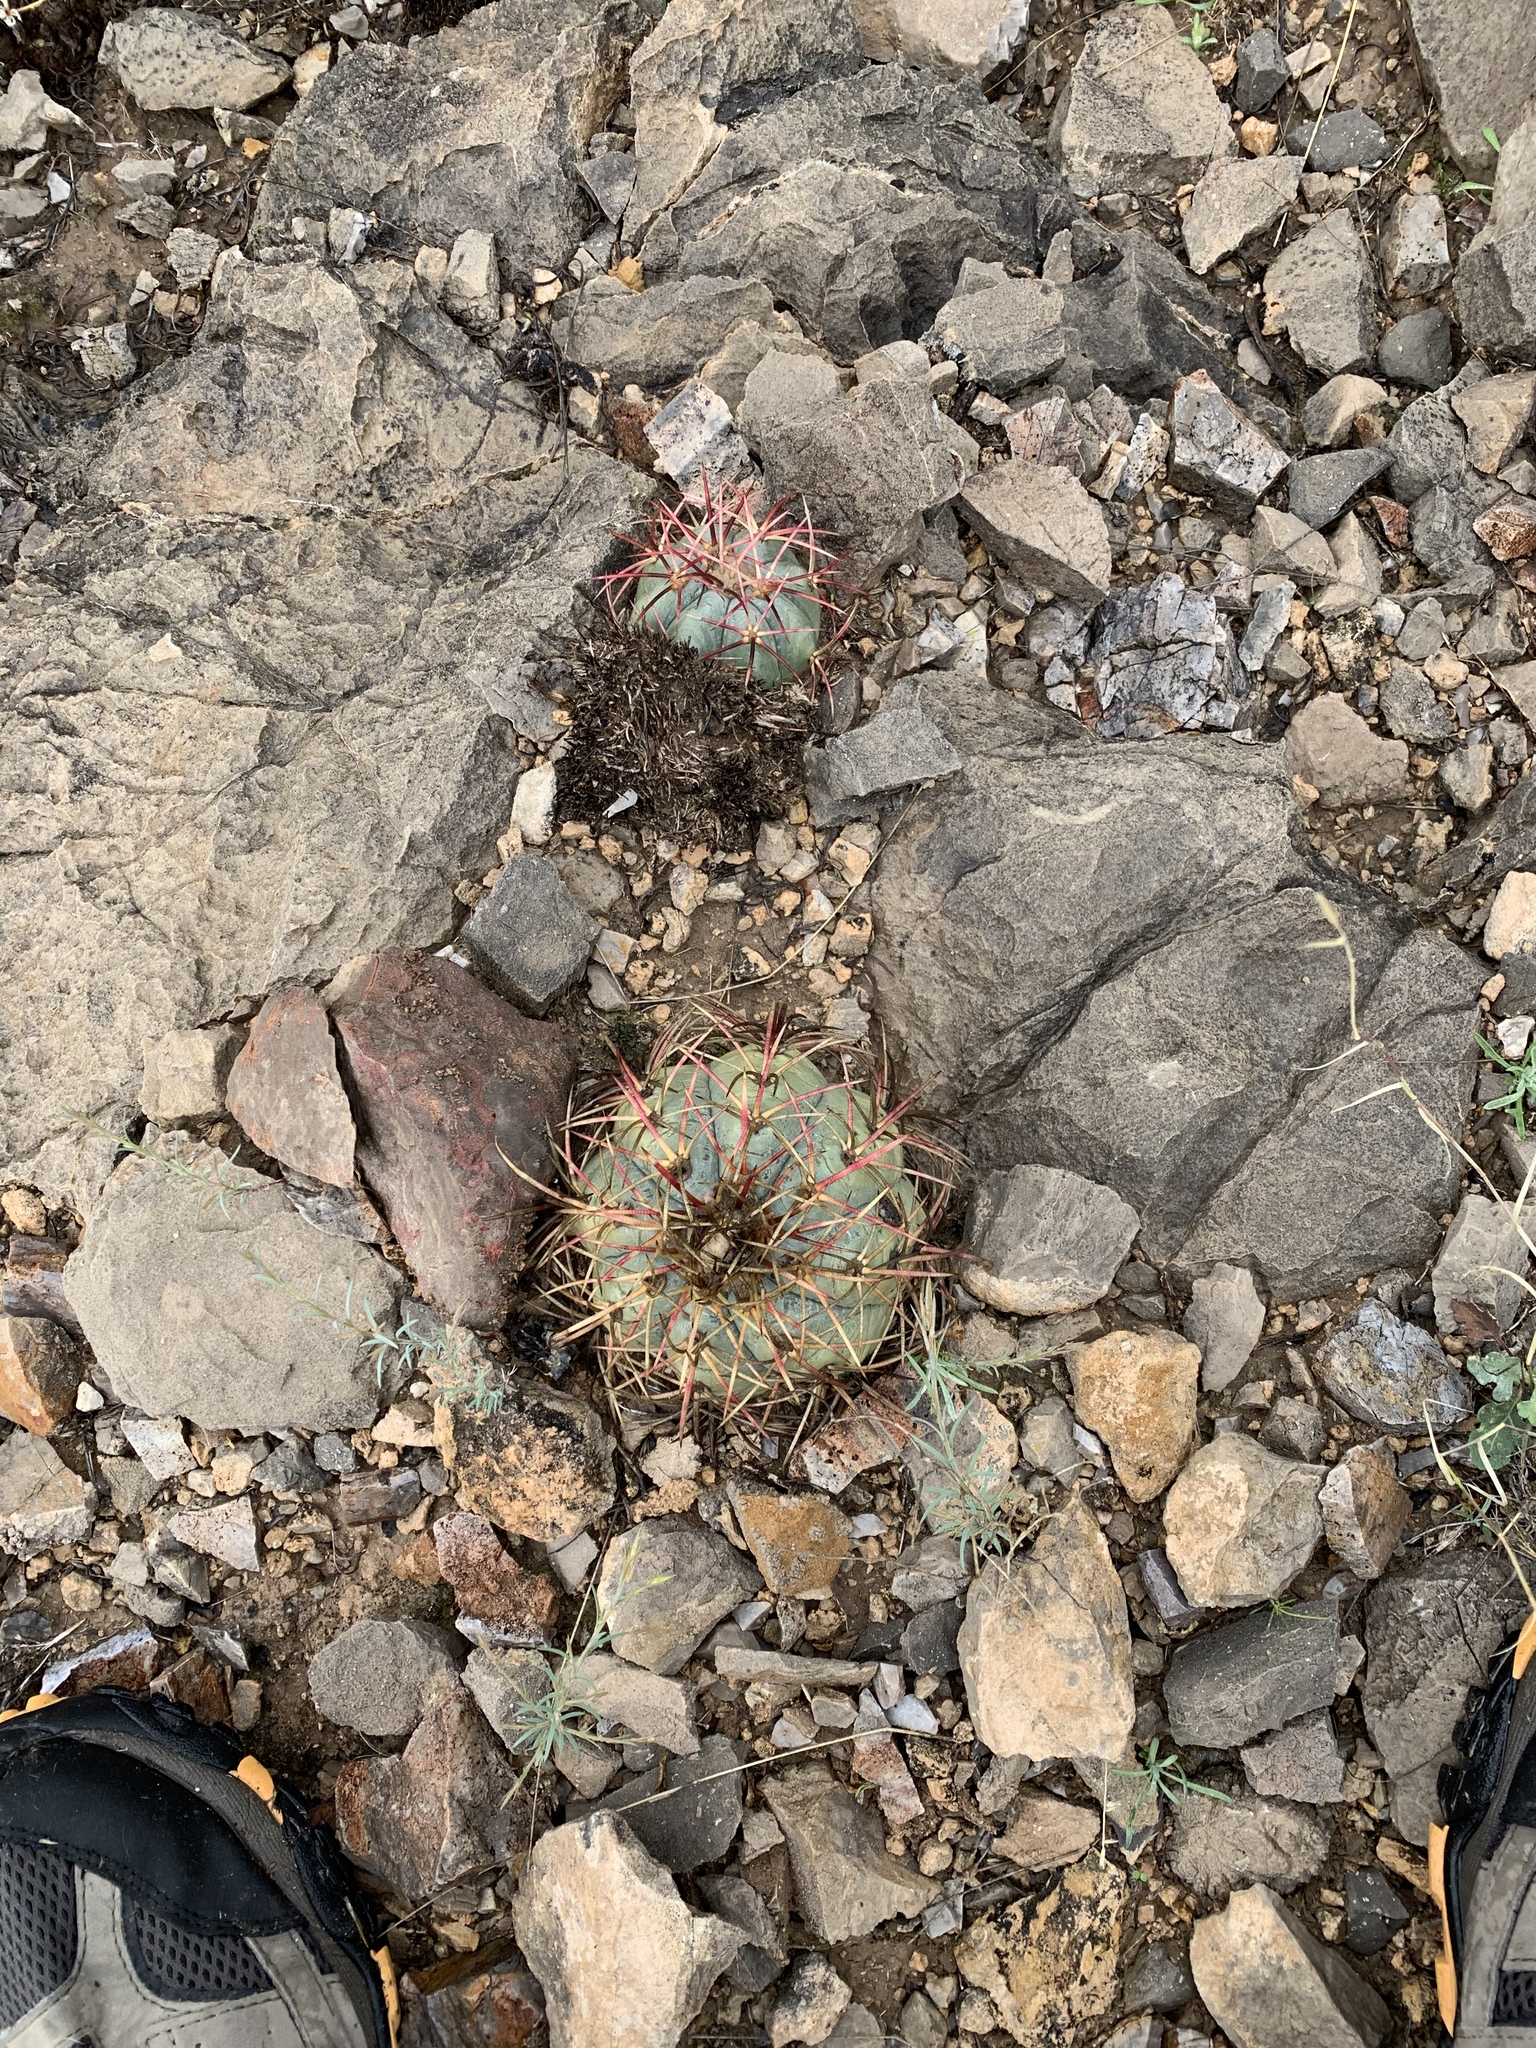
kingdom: Plantae
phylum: Tracheophyta
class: Magnoliopsida
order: Caryophyllales
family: Cactaceae
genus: Echinocactus
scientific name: Echinocactus horizonthalonius
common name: Devilshead
